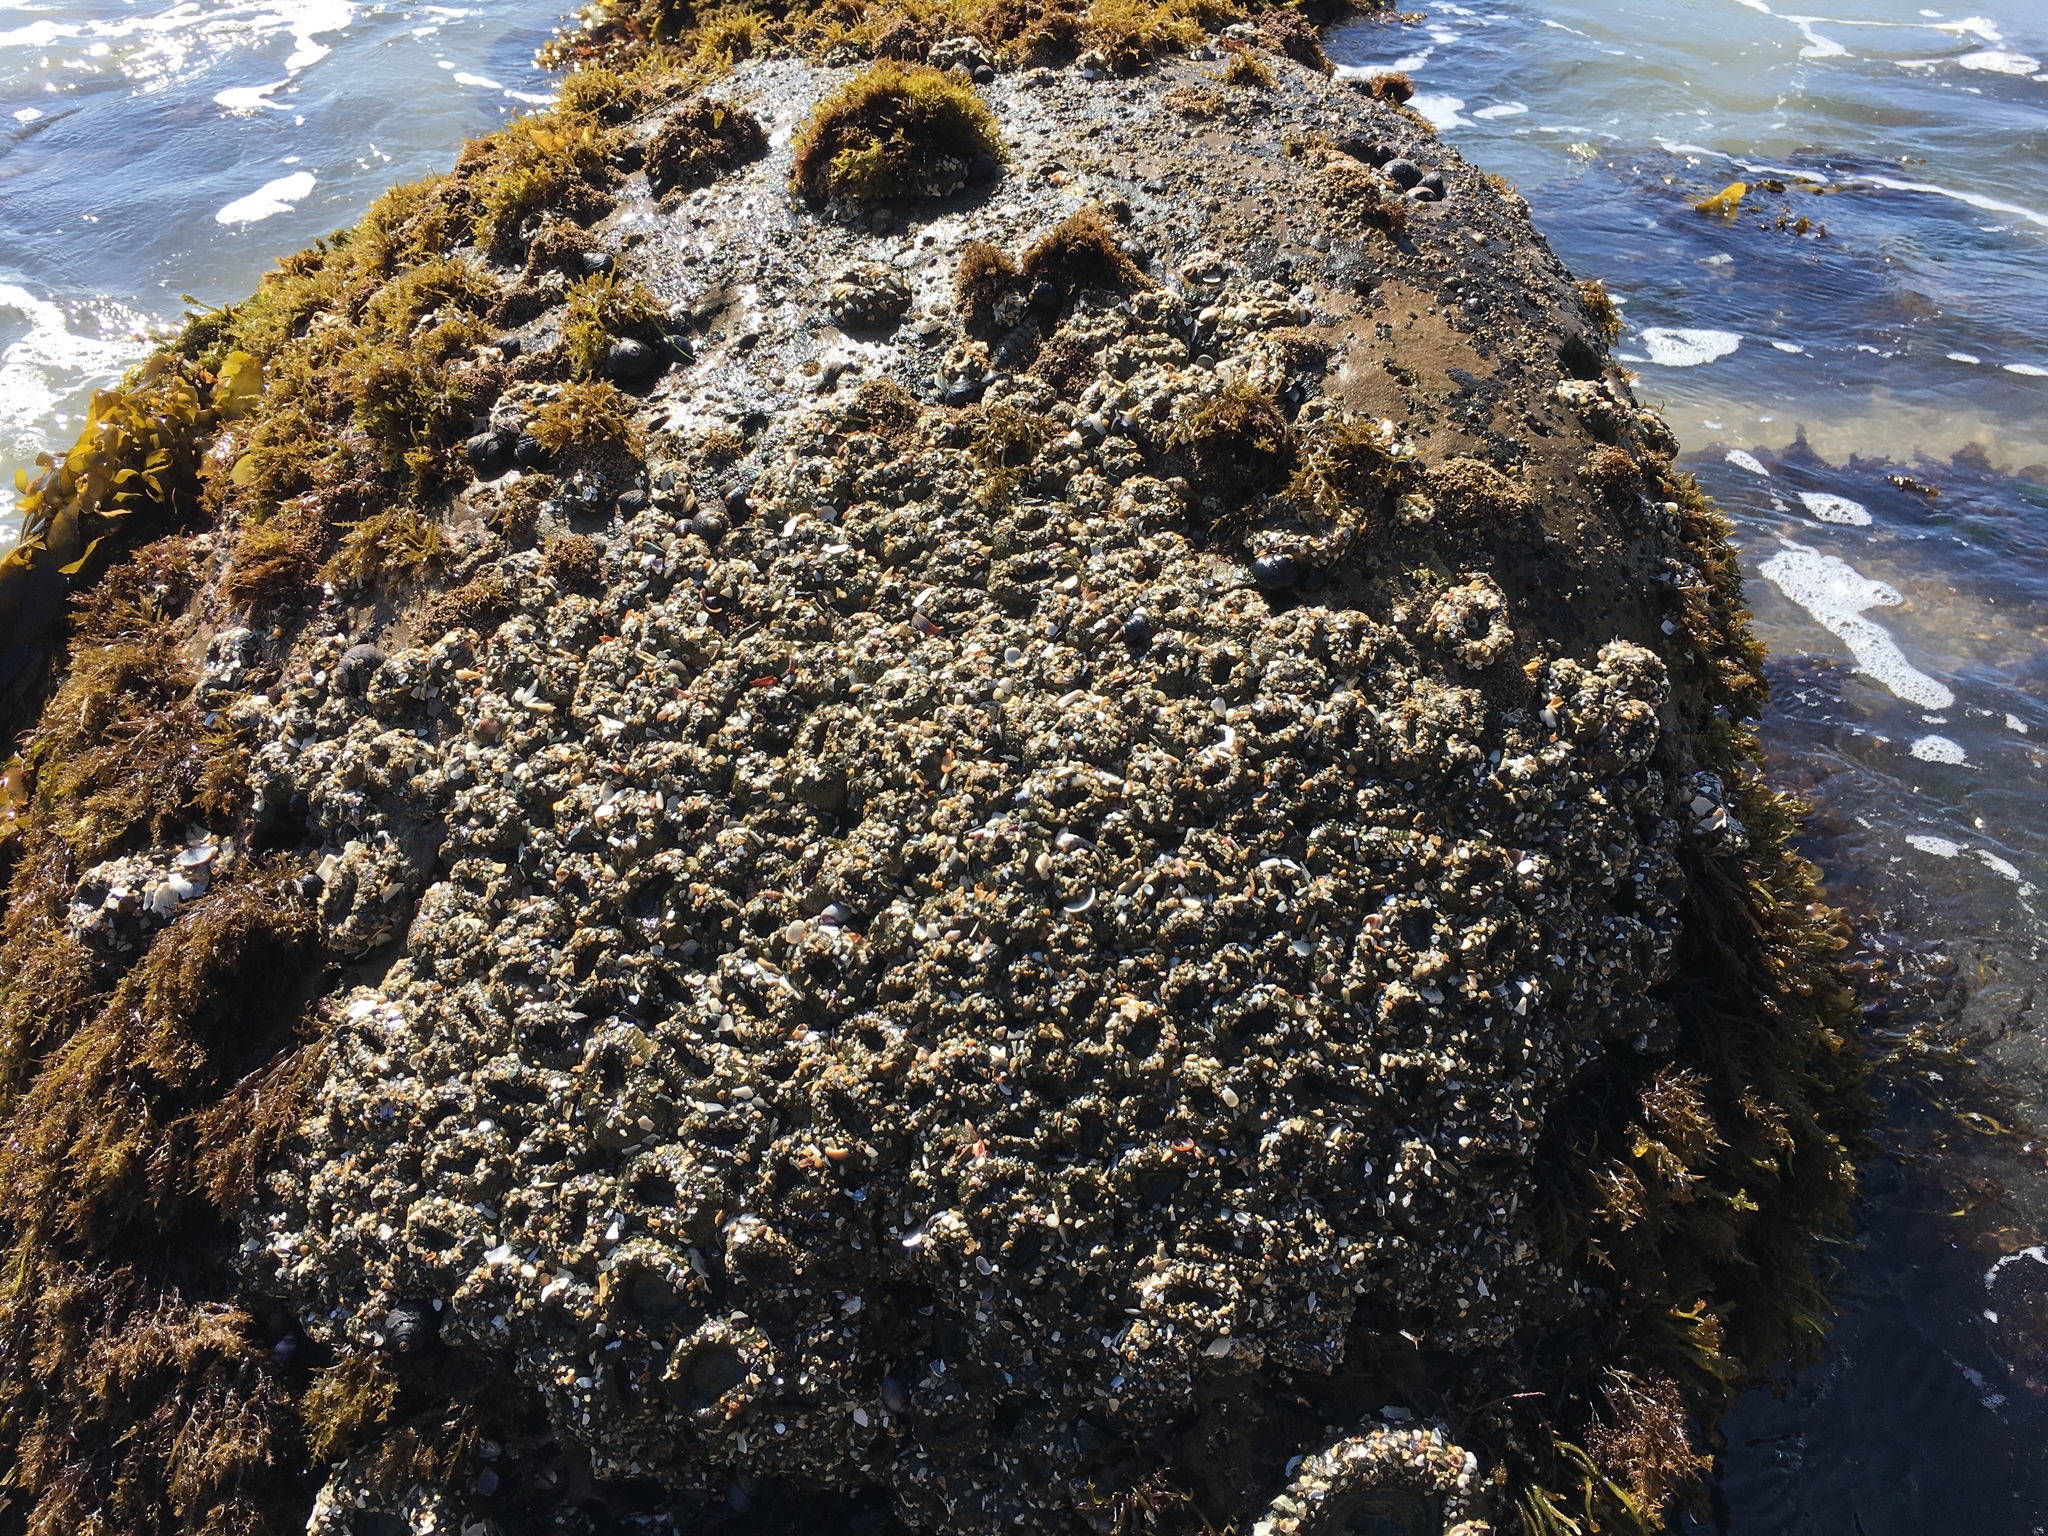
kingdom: Animalia
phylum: Cnidaria
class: Anthozoa
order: Actiniaria
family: Actiniidae
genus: Anthopleura
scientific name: Anthopleura elegantissima
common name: Clonal anemone
